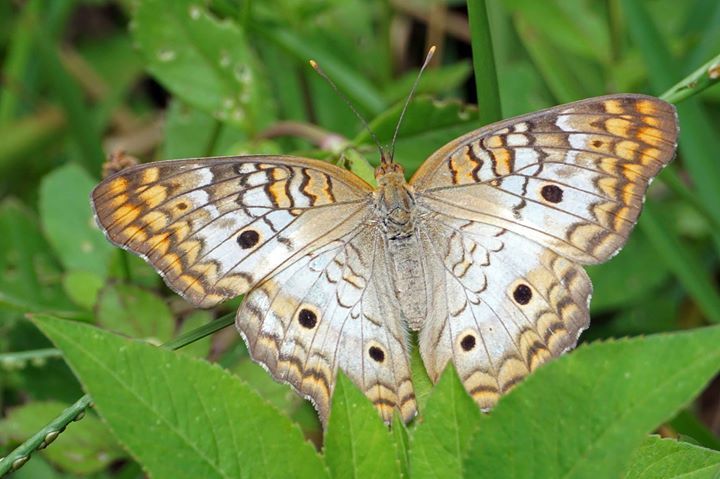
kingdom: Animalia
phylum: Arthropoda
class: Insecta
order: Lepidoptera
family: Nymphalidae
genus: Anartia
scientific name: Anartia jatrophae
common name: White peacock
